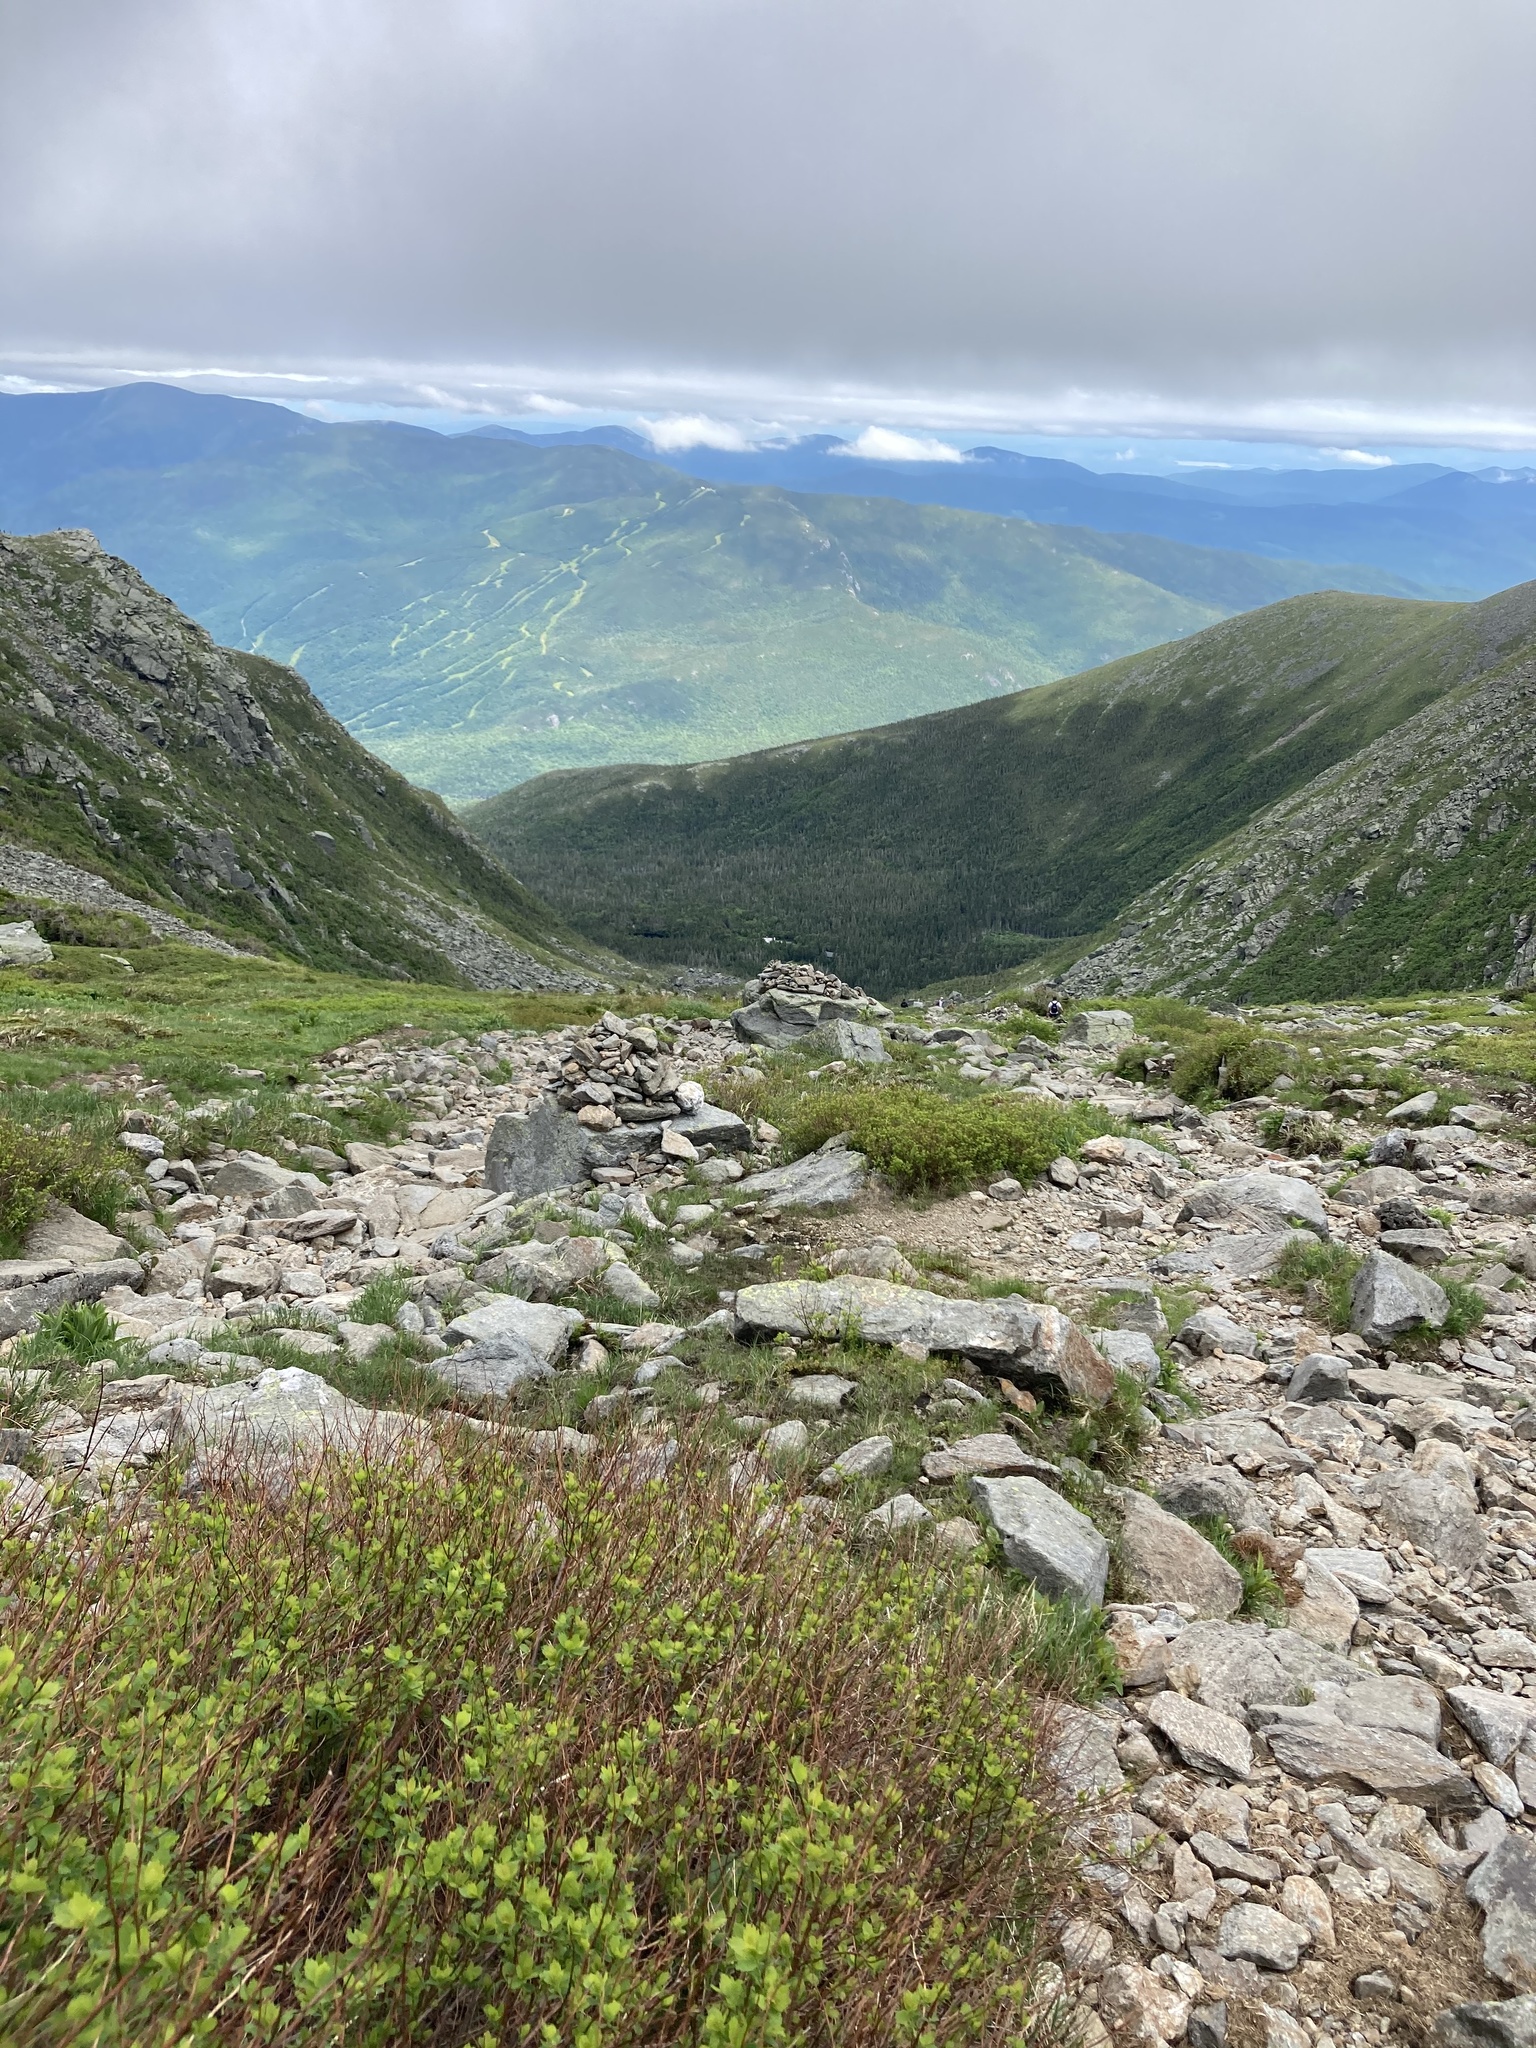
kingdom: Plantae
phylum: Tracheophyta
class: Magnoliopsida
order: Rosales
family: Rosaceae
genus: Spiraea
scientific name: Spiraea alba
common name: Pale bridewort
